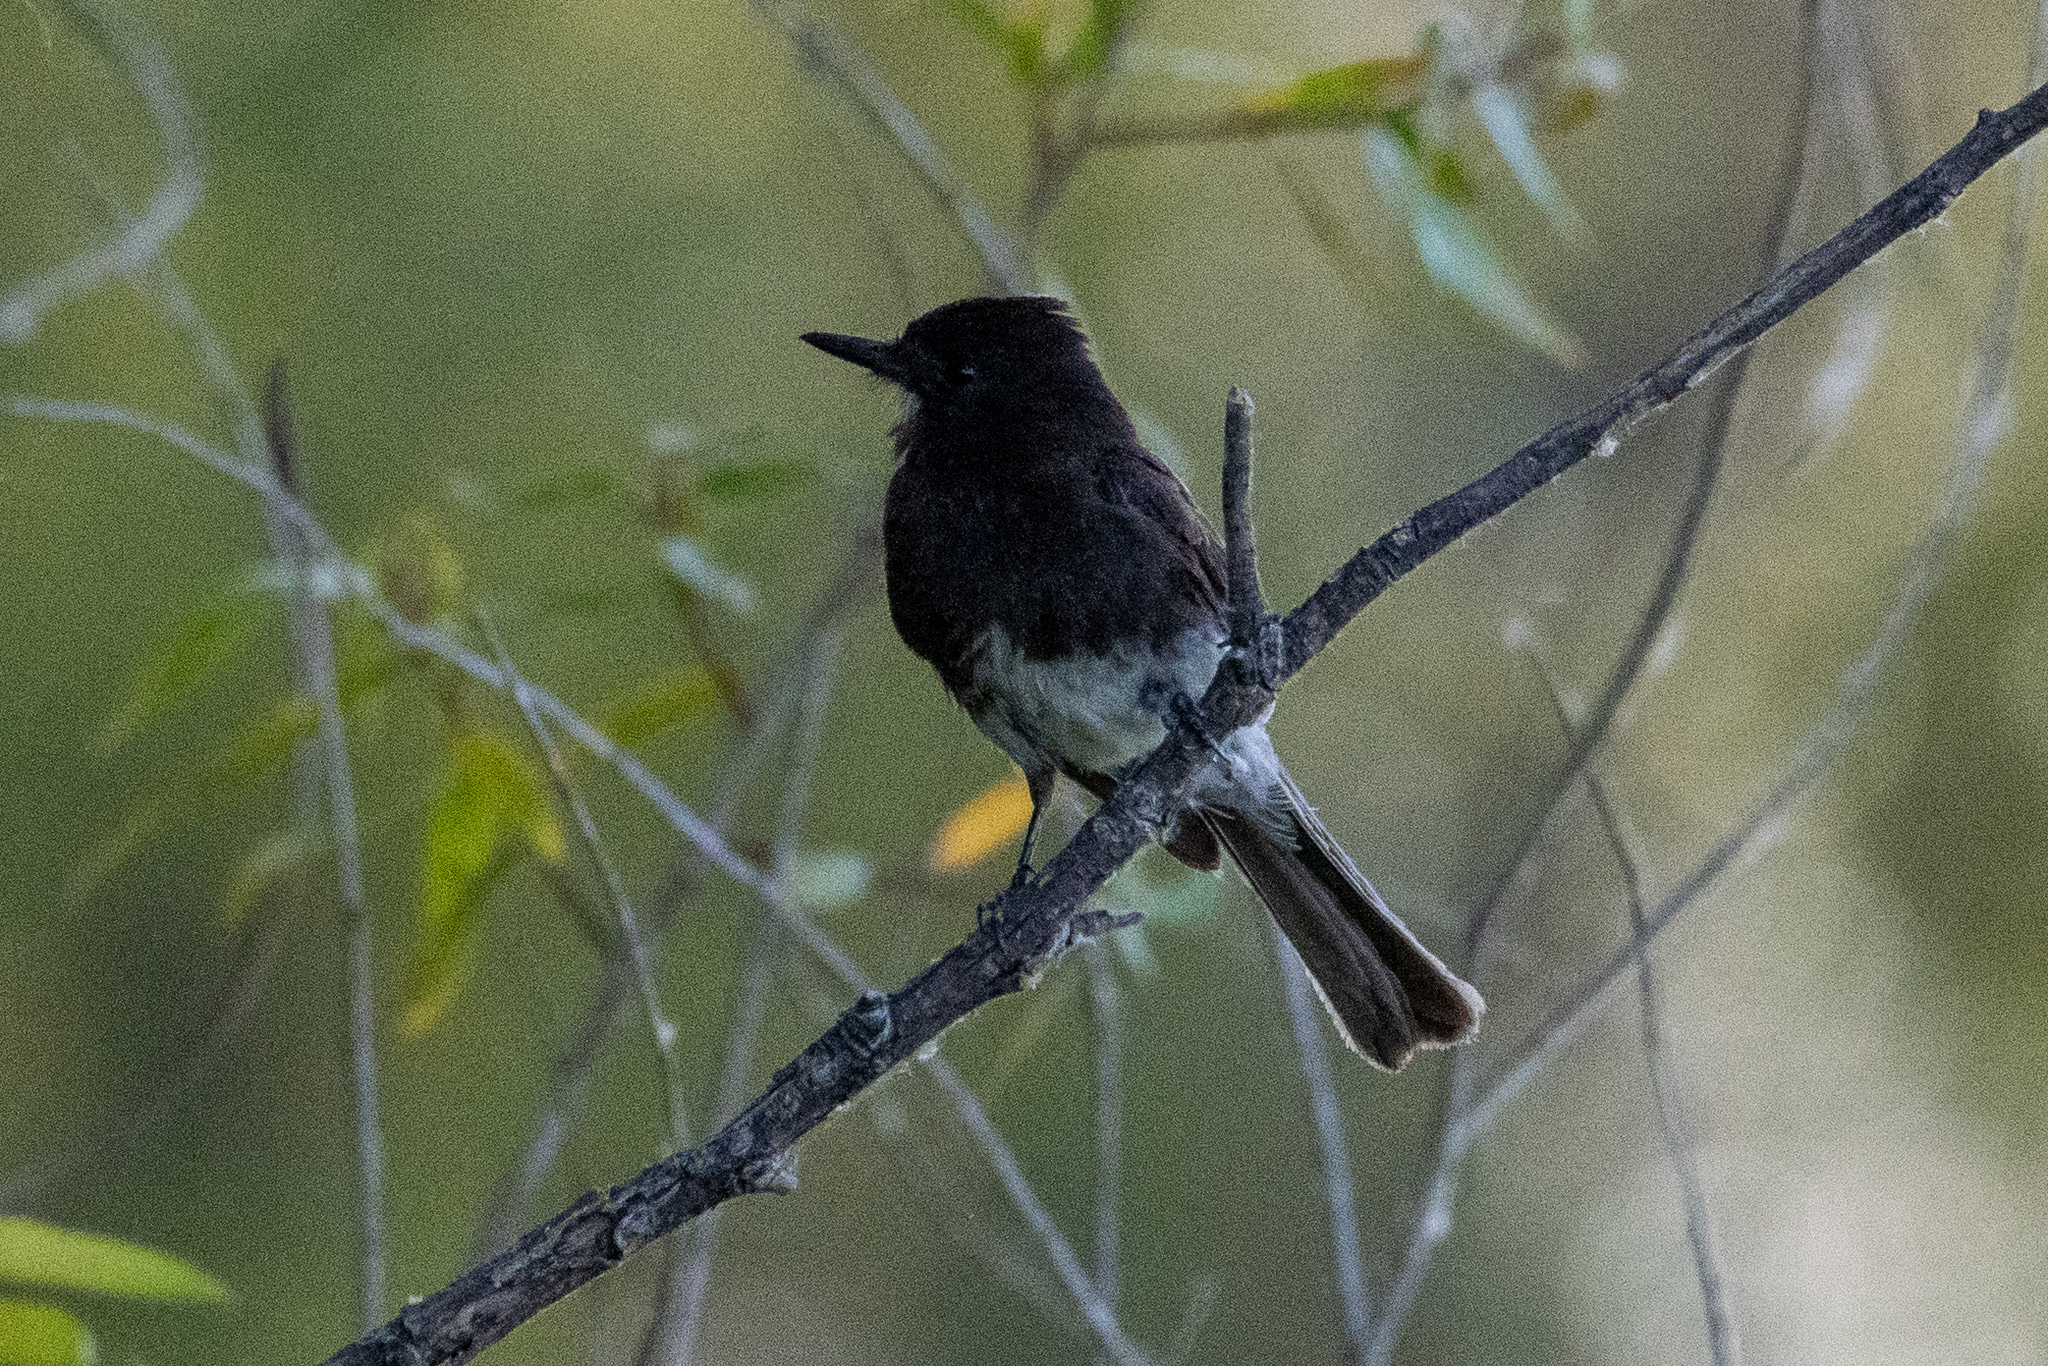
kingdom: Animalia
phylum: Chordata
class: Aves
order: Passeriformes
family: Tyrannidae
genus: Sayornis
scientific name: Sayornis nigricans
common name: Black phoebe
